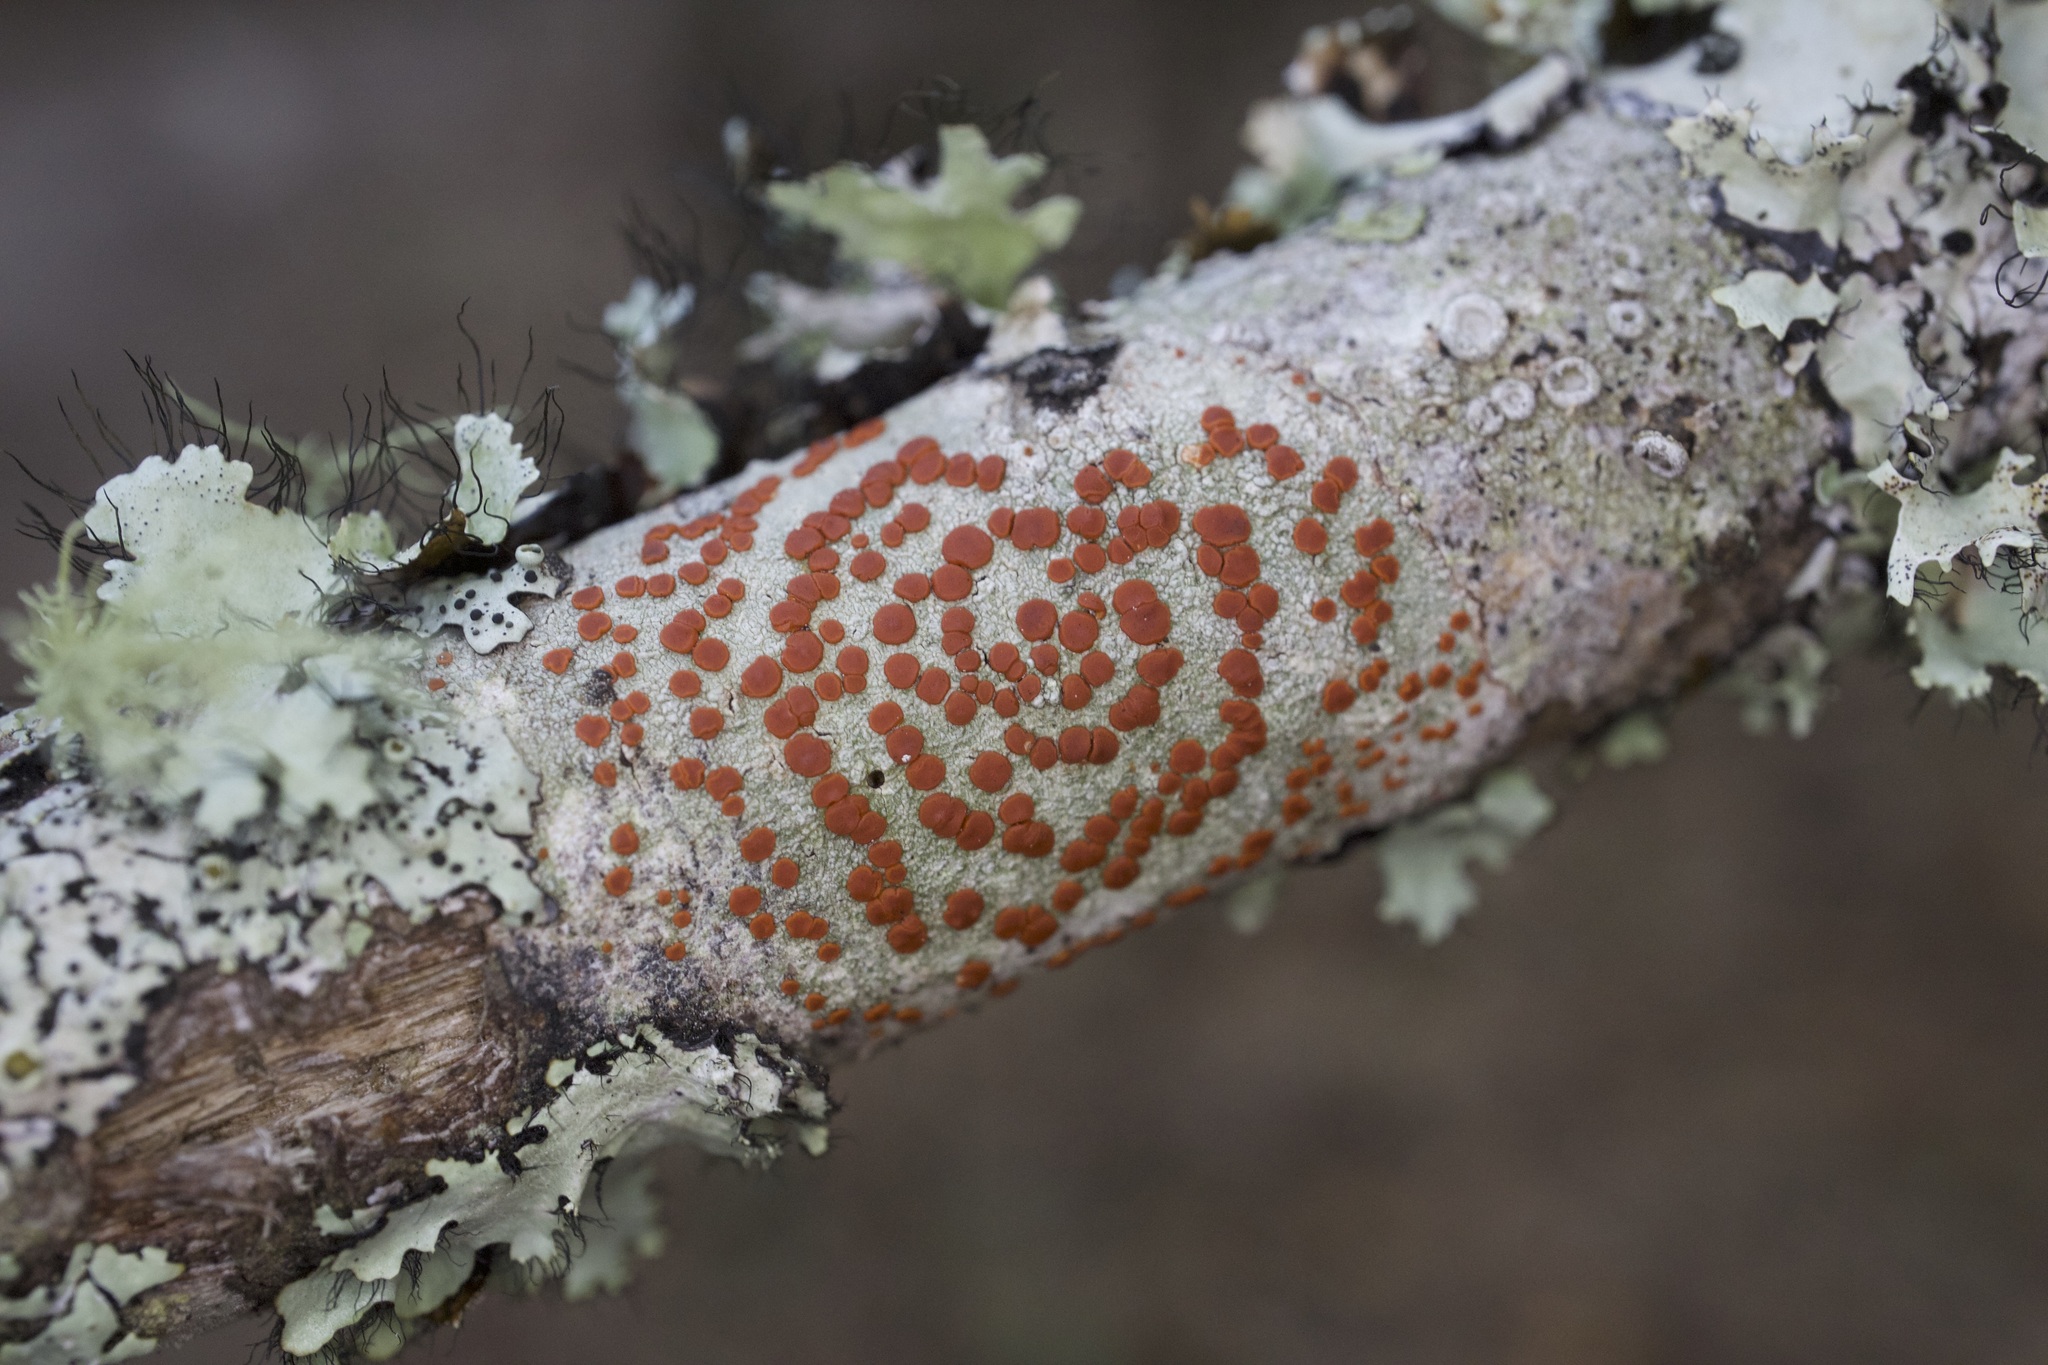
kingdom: Fungi
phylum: Ascomycota
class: Lecanoromycetes
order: Lecanorales
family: Ramboldiaceae
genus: Ramboldia
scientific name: Ramboldia russula
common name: Red heads
